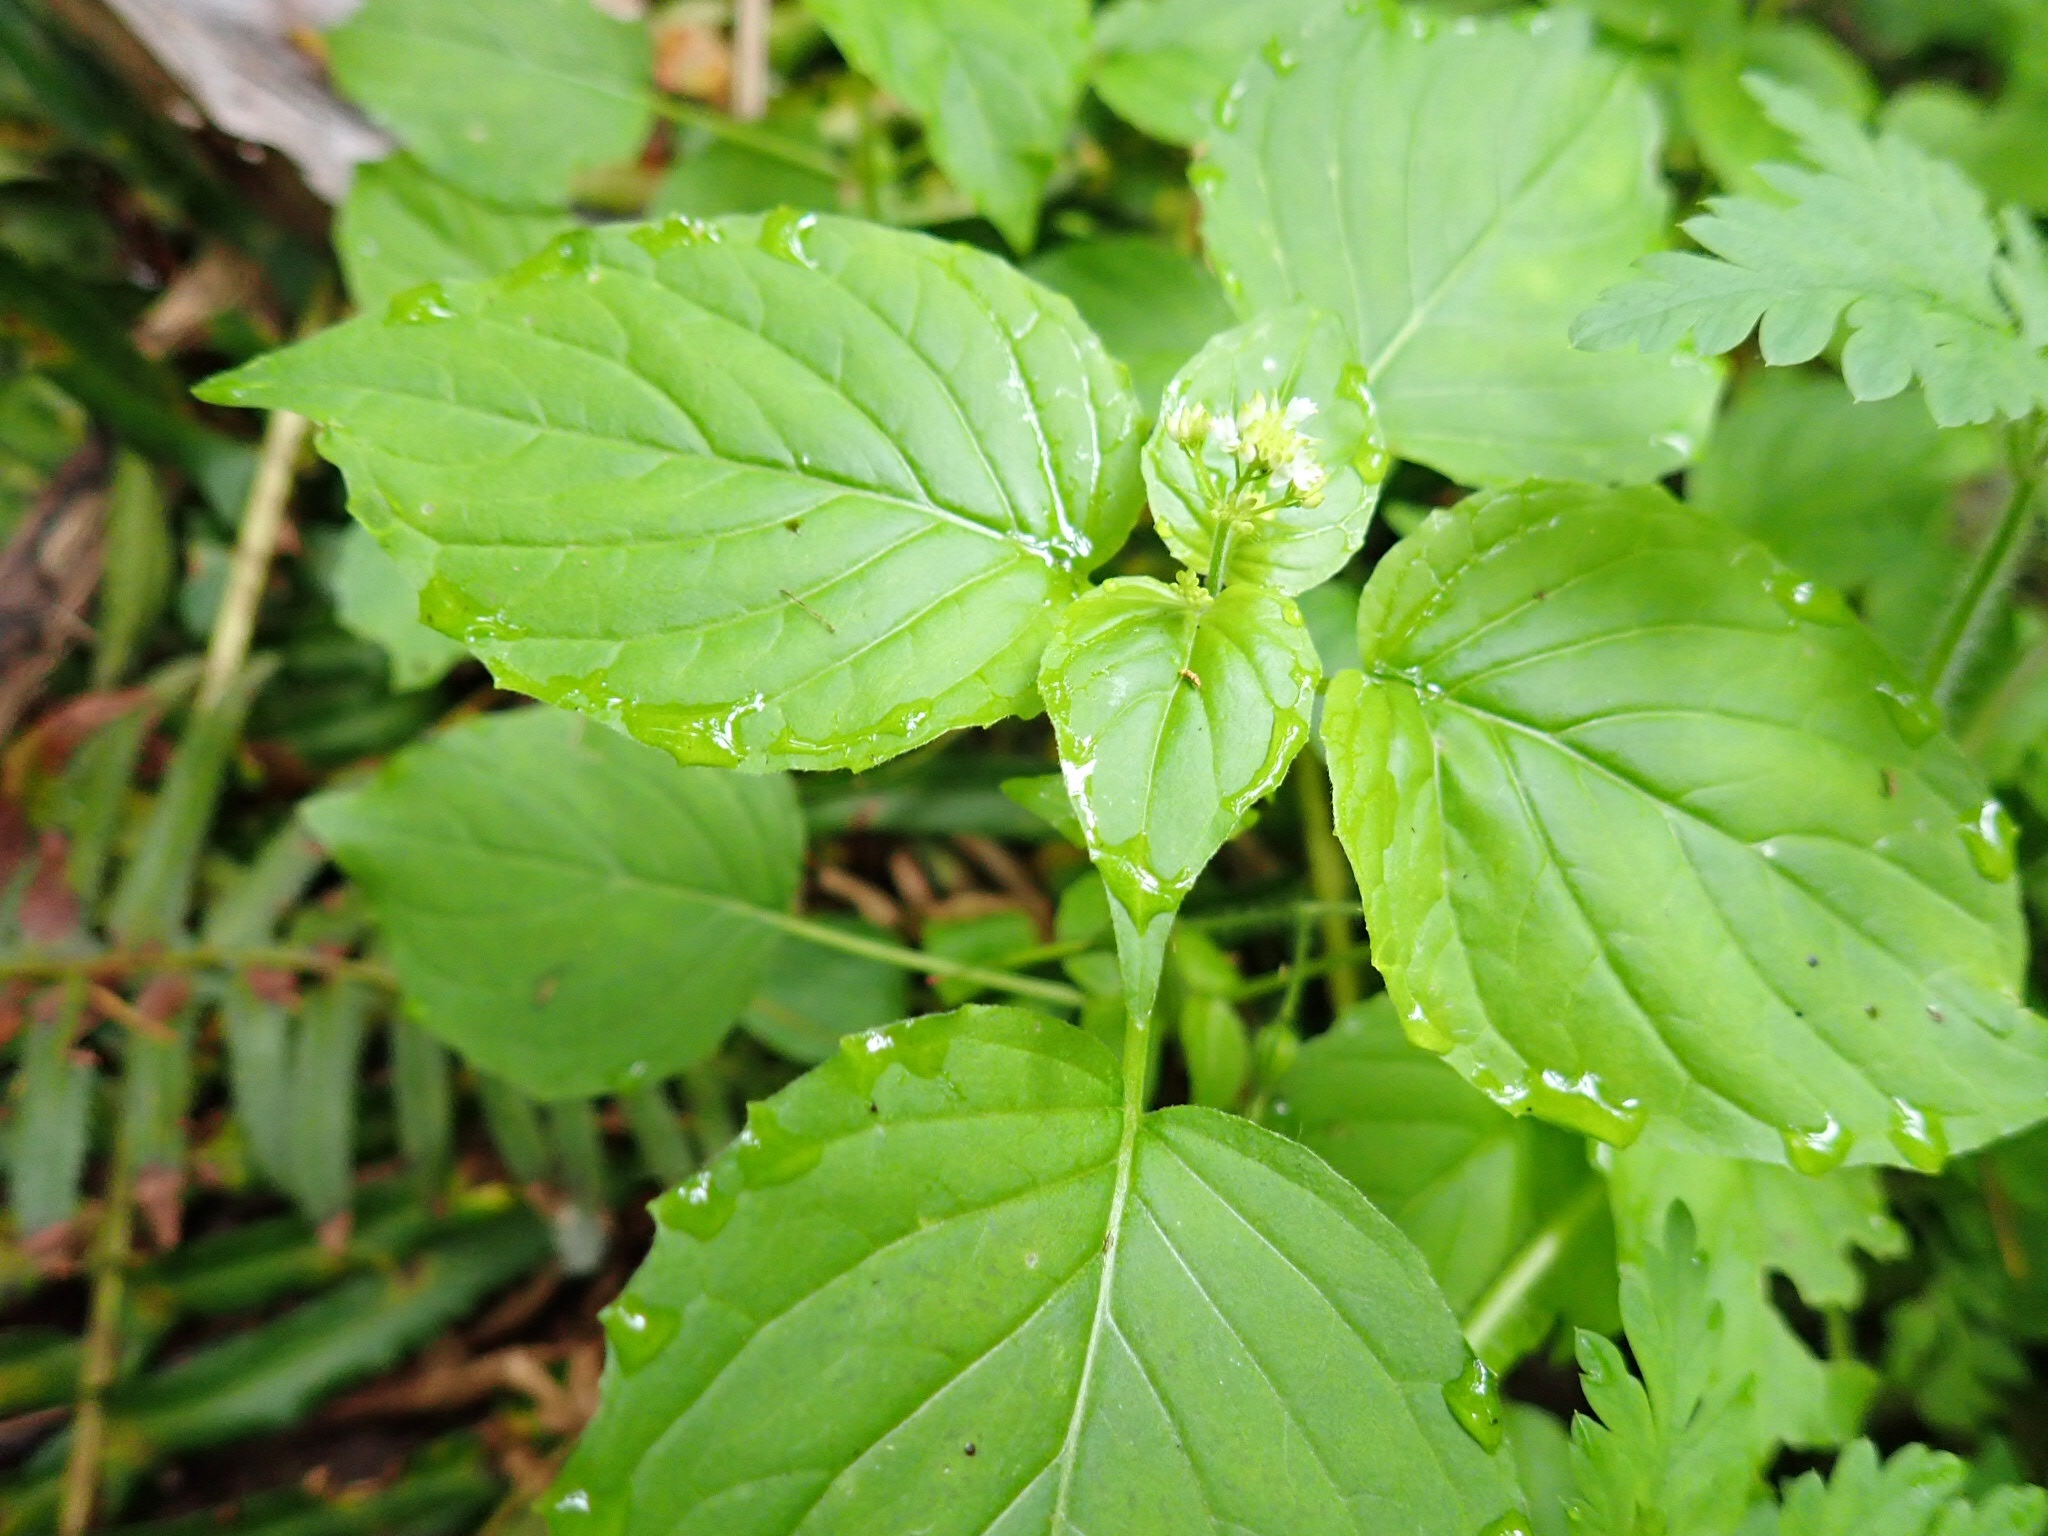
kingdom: Plantae
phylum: Tracheophyta
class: Magnoliopsida
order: Myrtales
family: Onagraceae
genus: Circaea
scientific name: Circaea alpina
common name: Alpine enchanter's-nightshade
